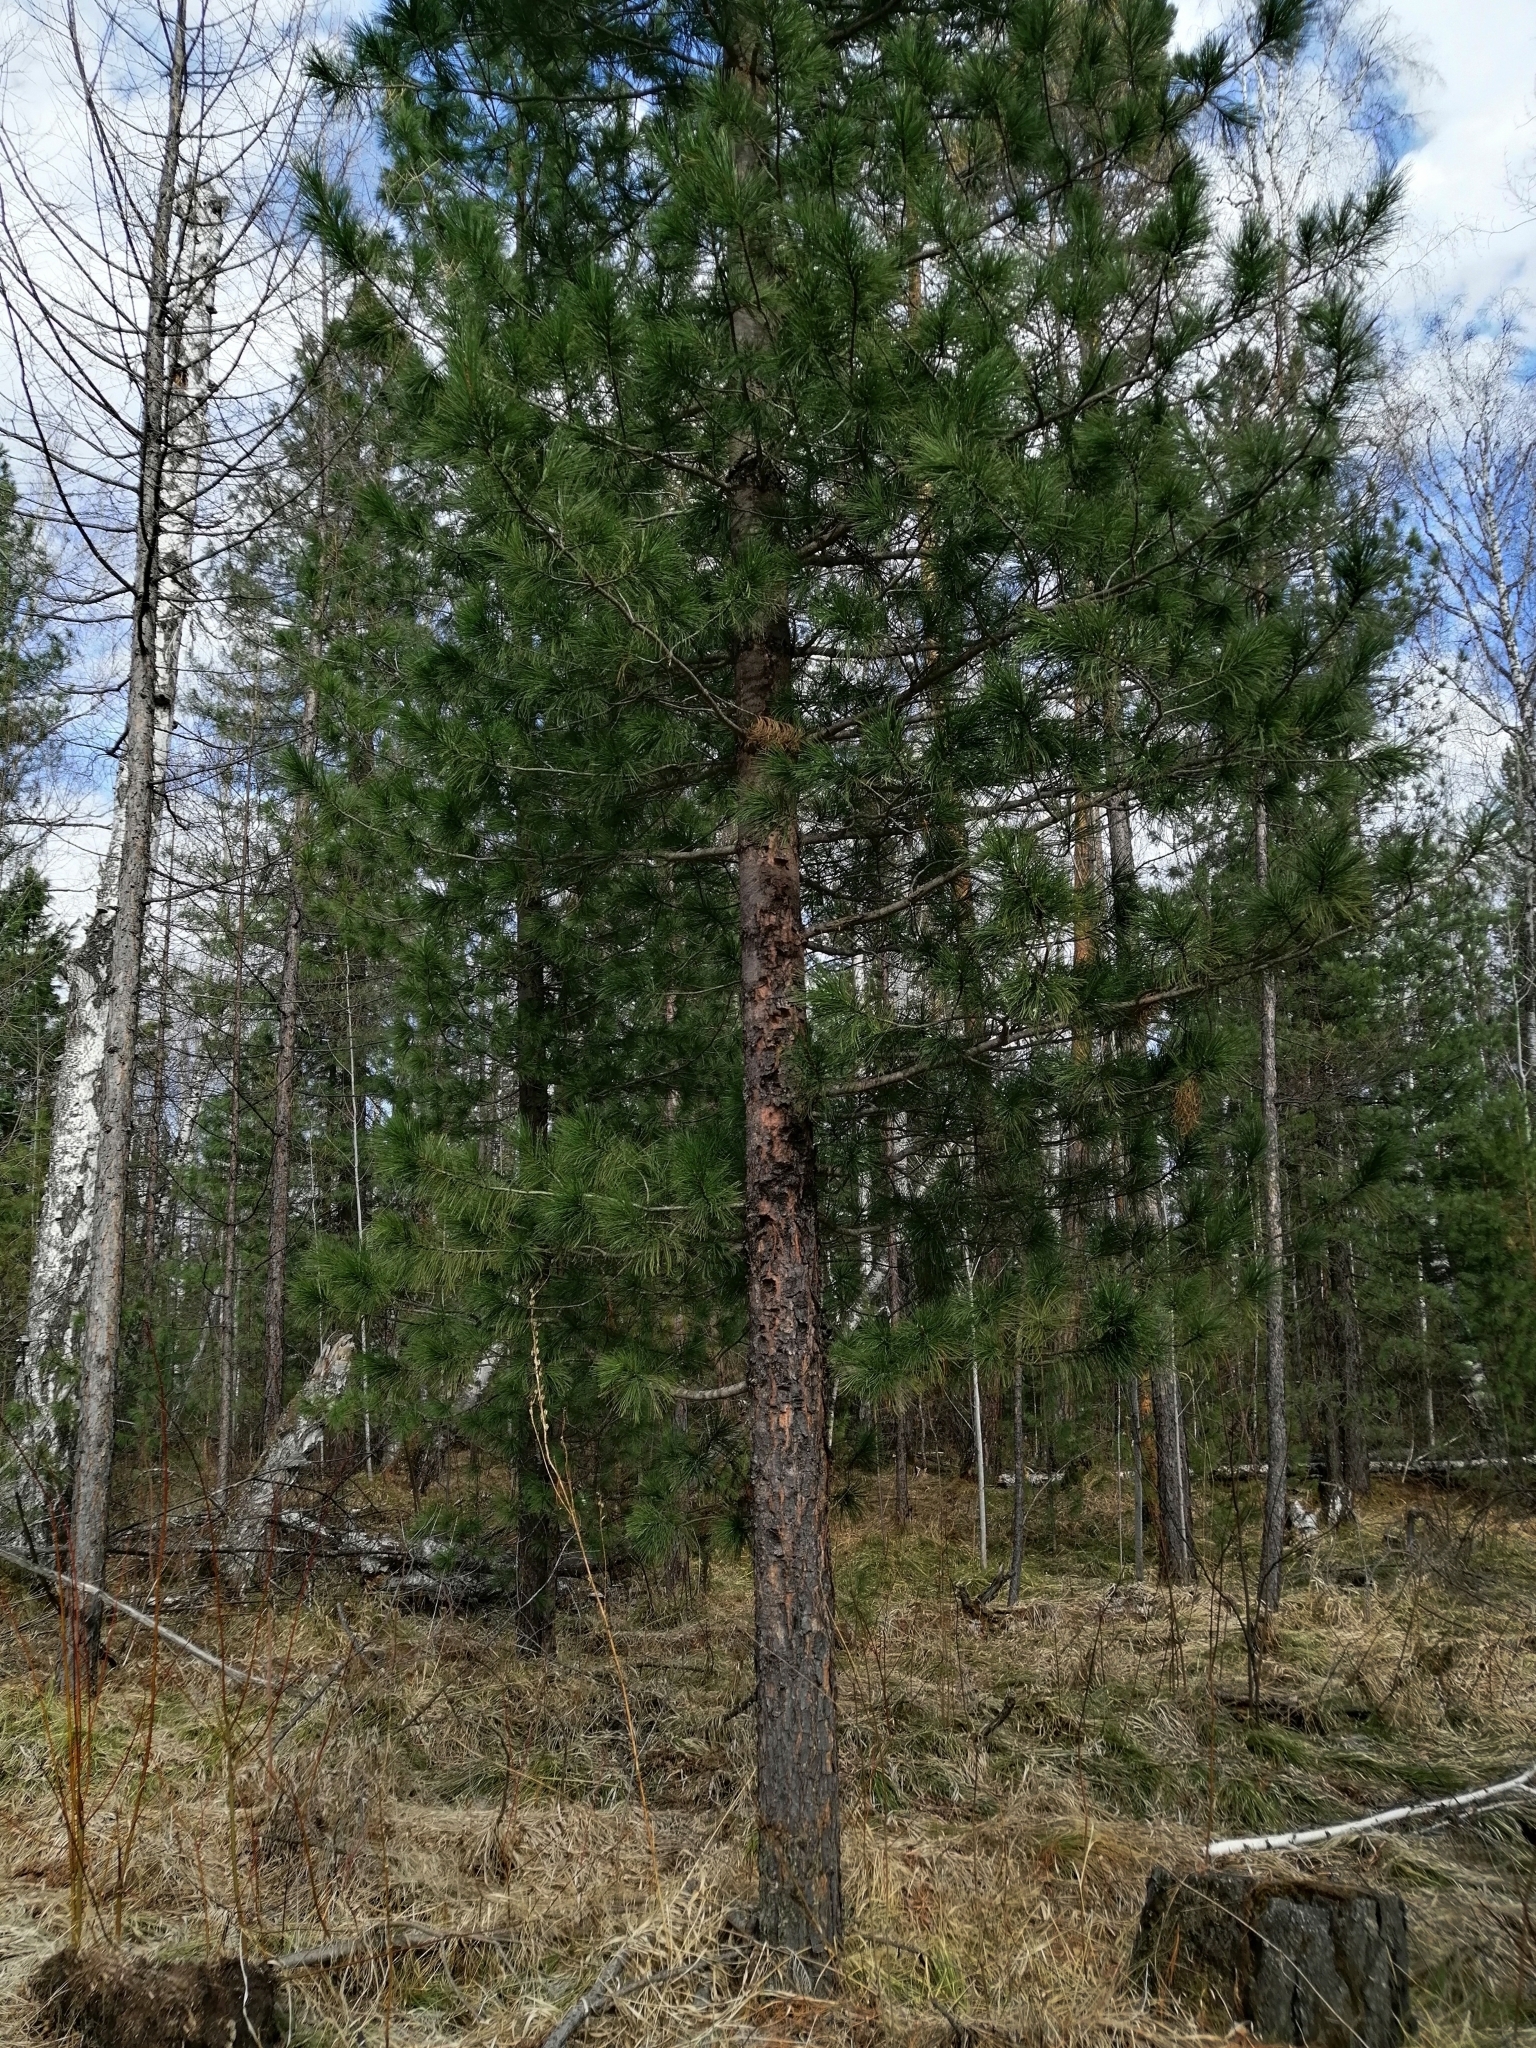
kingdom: Plantae
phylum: Tracheophyta
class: Pinopsida
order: Pinales
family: Pinaceae
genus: Pinus
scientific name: Pinus sibirica
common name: Siberian pine
